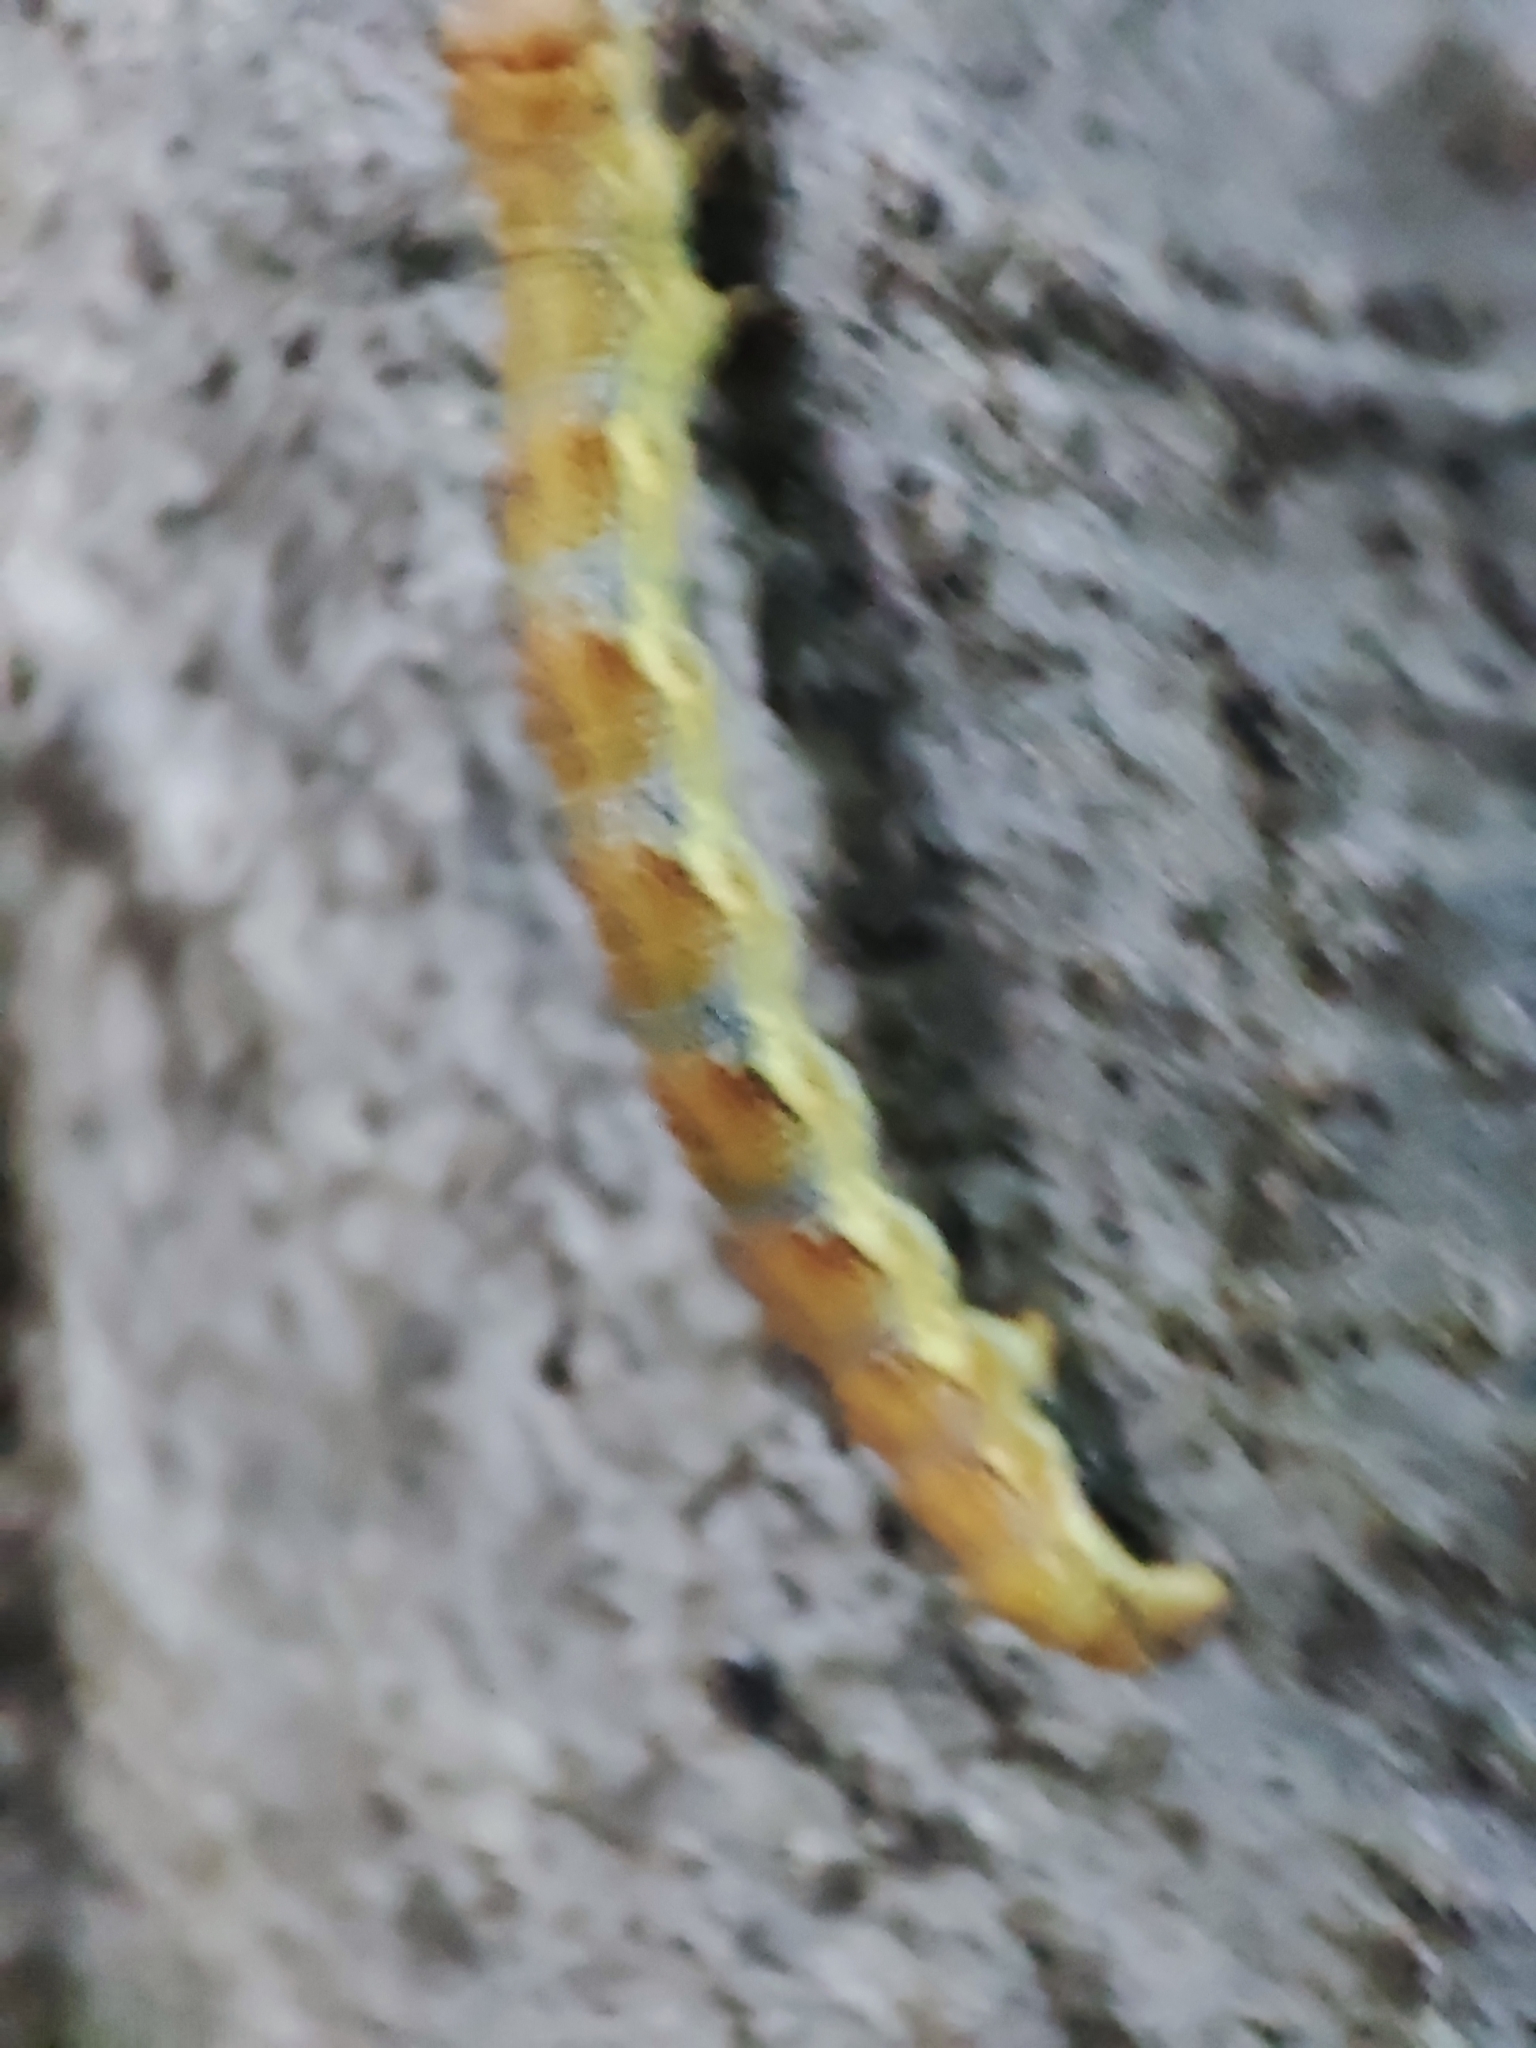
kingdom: Animalia
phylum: Arthropoda
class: Insecta
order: Lepidoptera
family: Geometridae
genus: Erannis
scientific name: Erannis defoliaria
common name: Mottled umber
